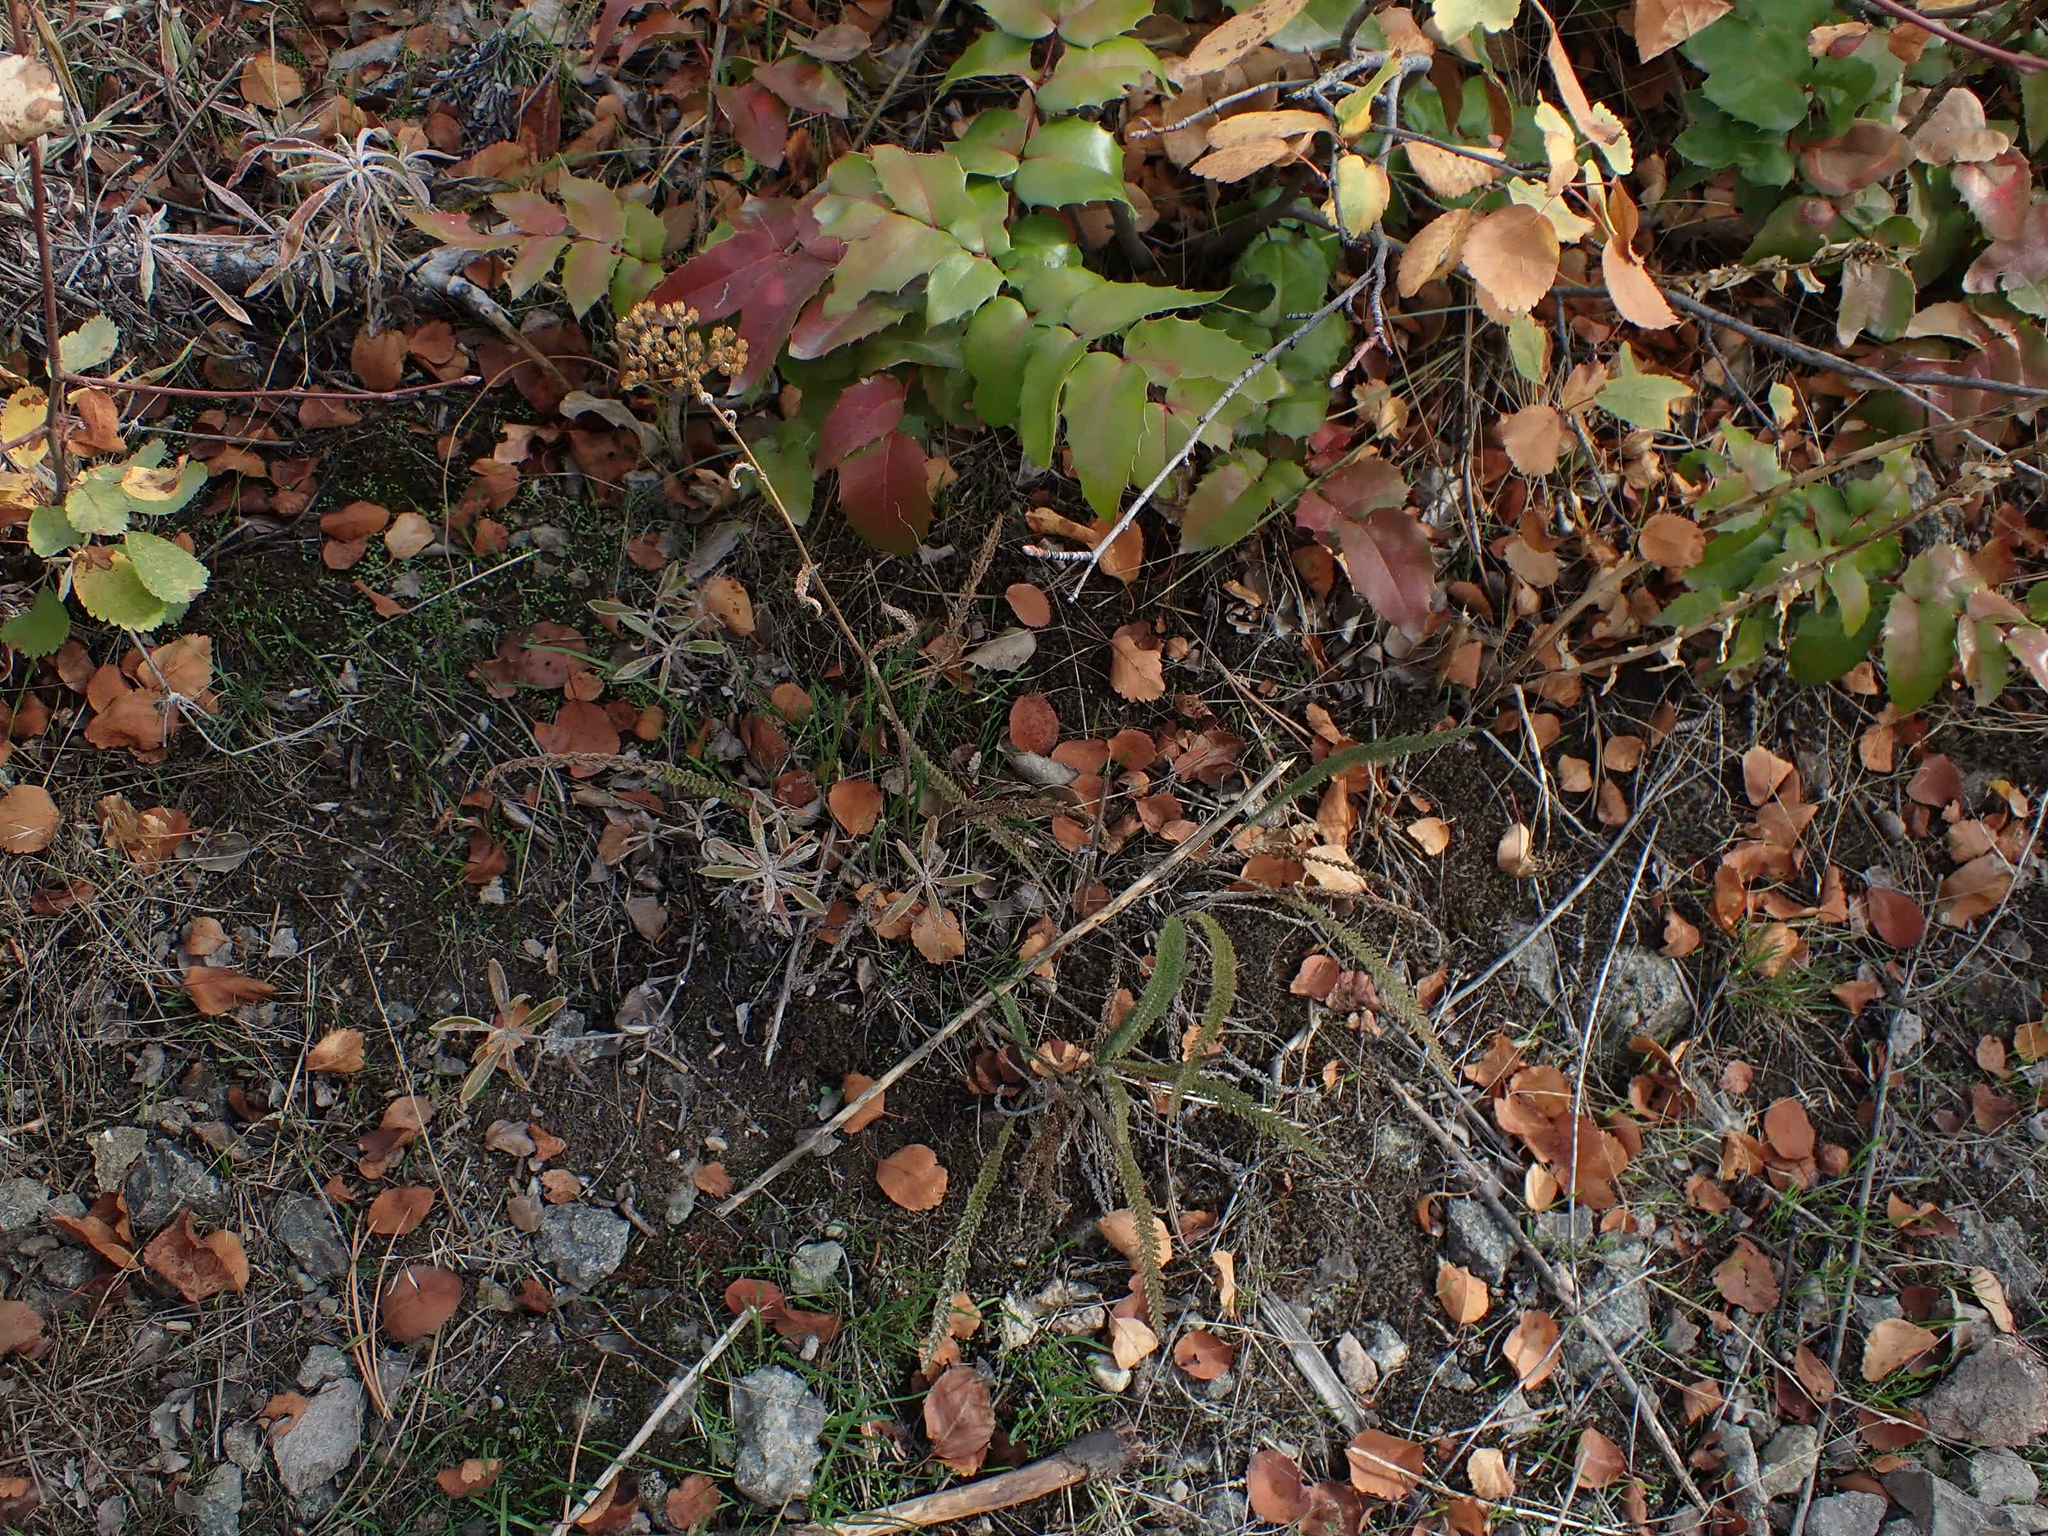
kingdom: Plantae
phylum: Tracheophyta
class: Magnoliopsida
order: Asterales
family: Asteraceae
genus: Achillea
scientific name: Achillea millefolium
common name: Yarrow
